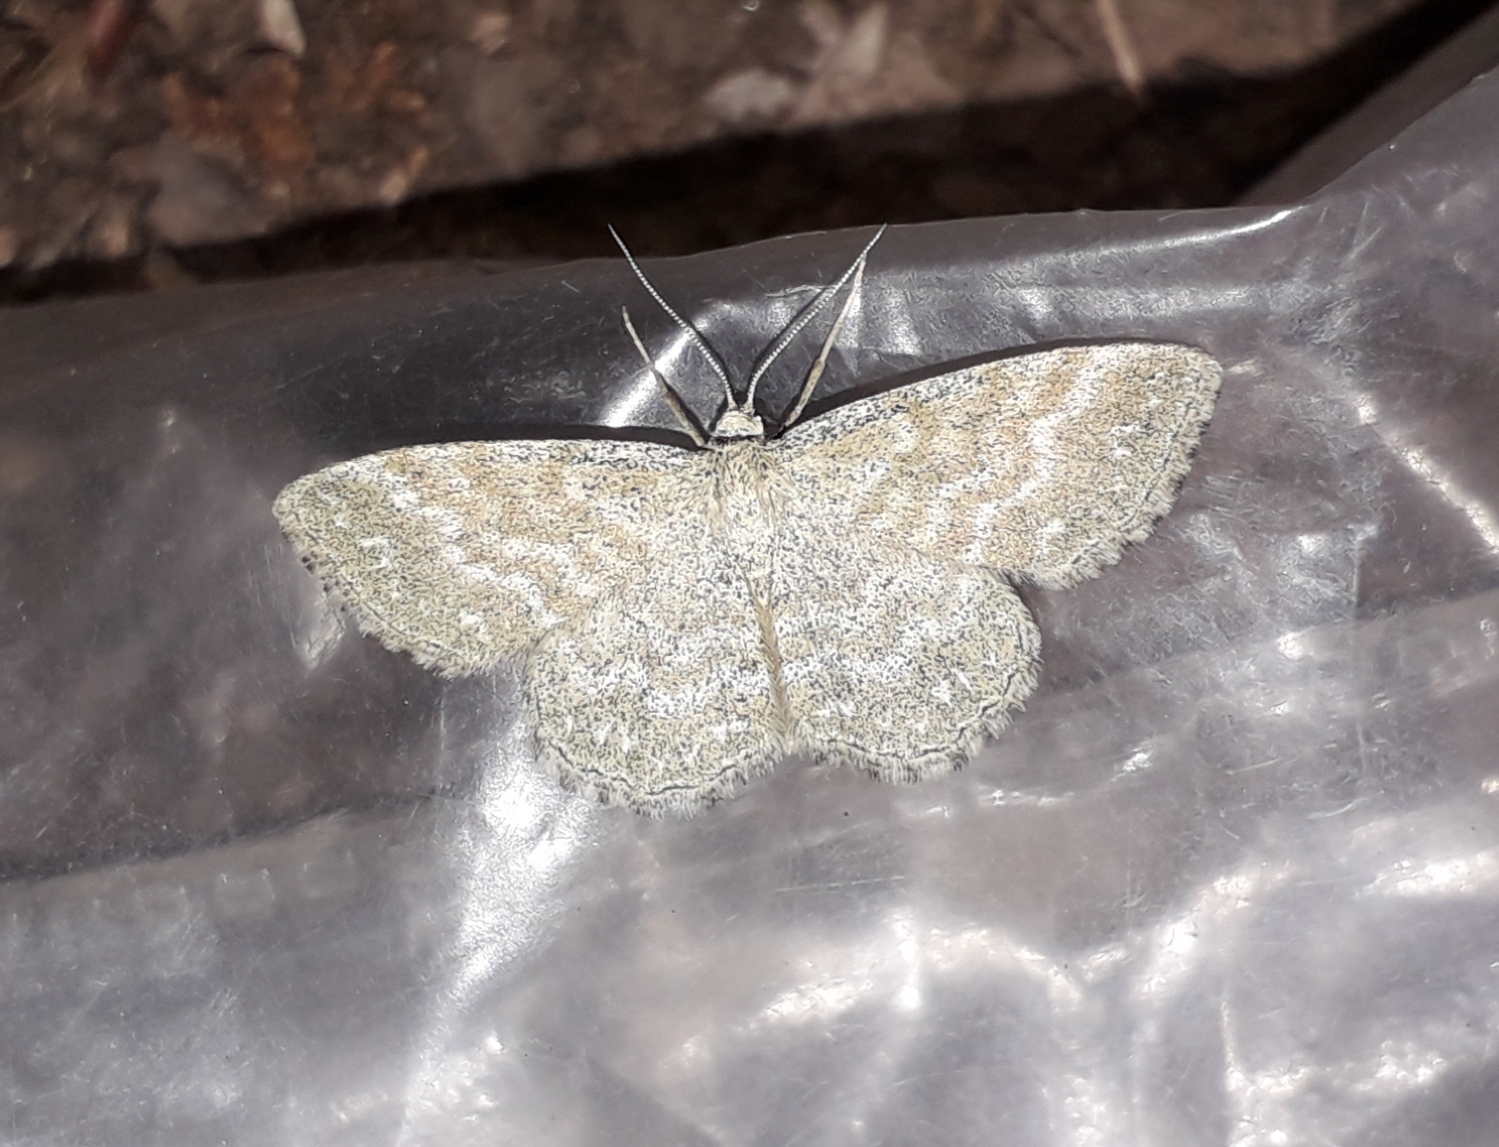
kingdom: Animalia
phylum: Arthropoda
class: Insecta
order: Lepidoptera
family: Geometridae
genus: Scopula
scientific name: Scopula immorata
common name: Lewes wave
